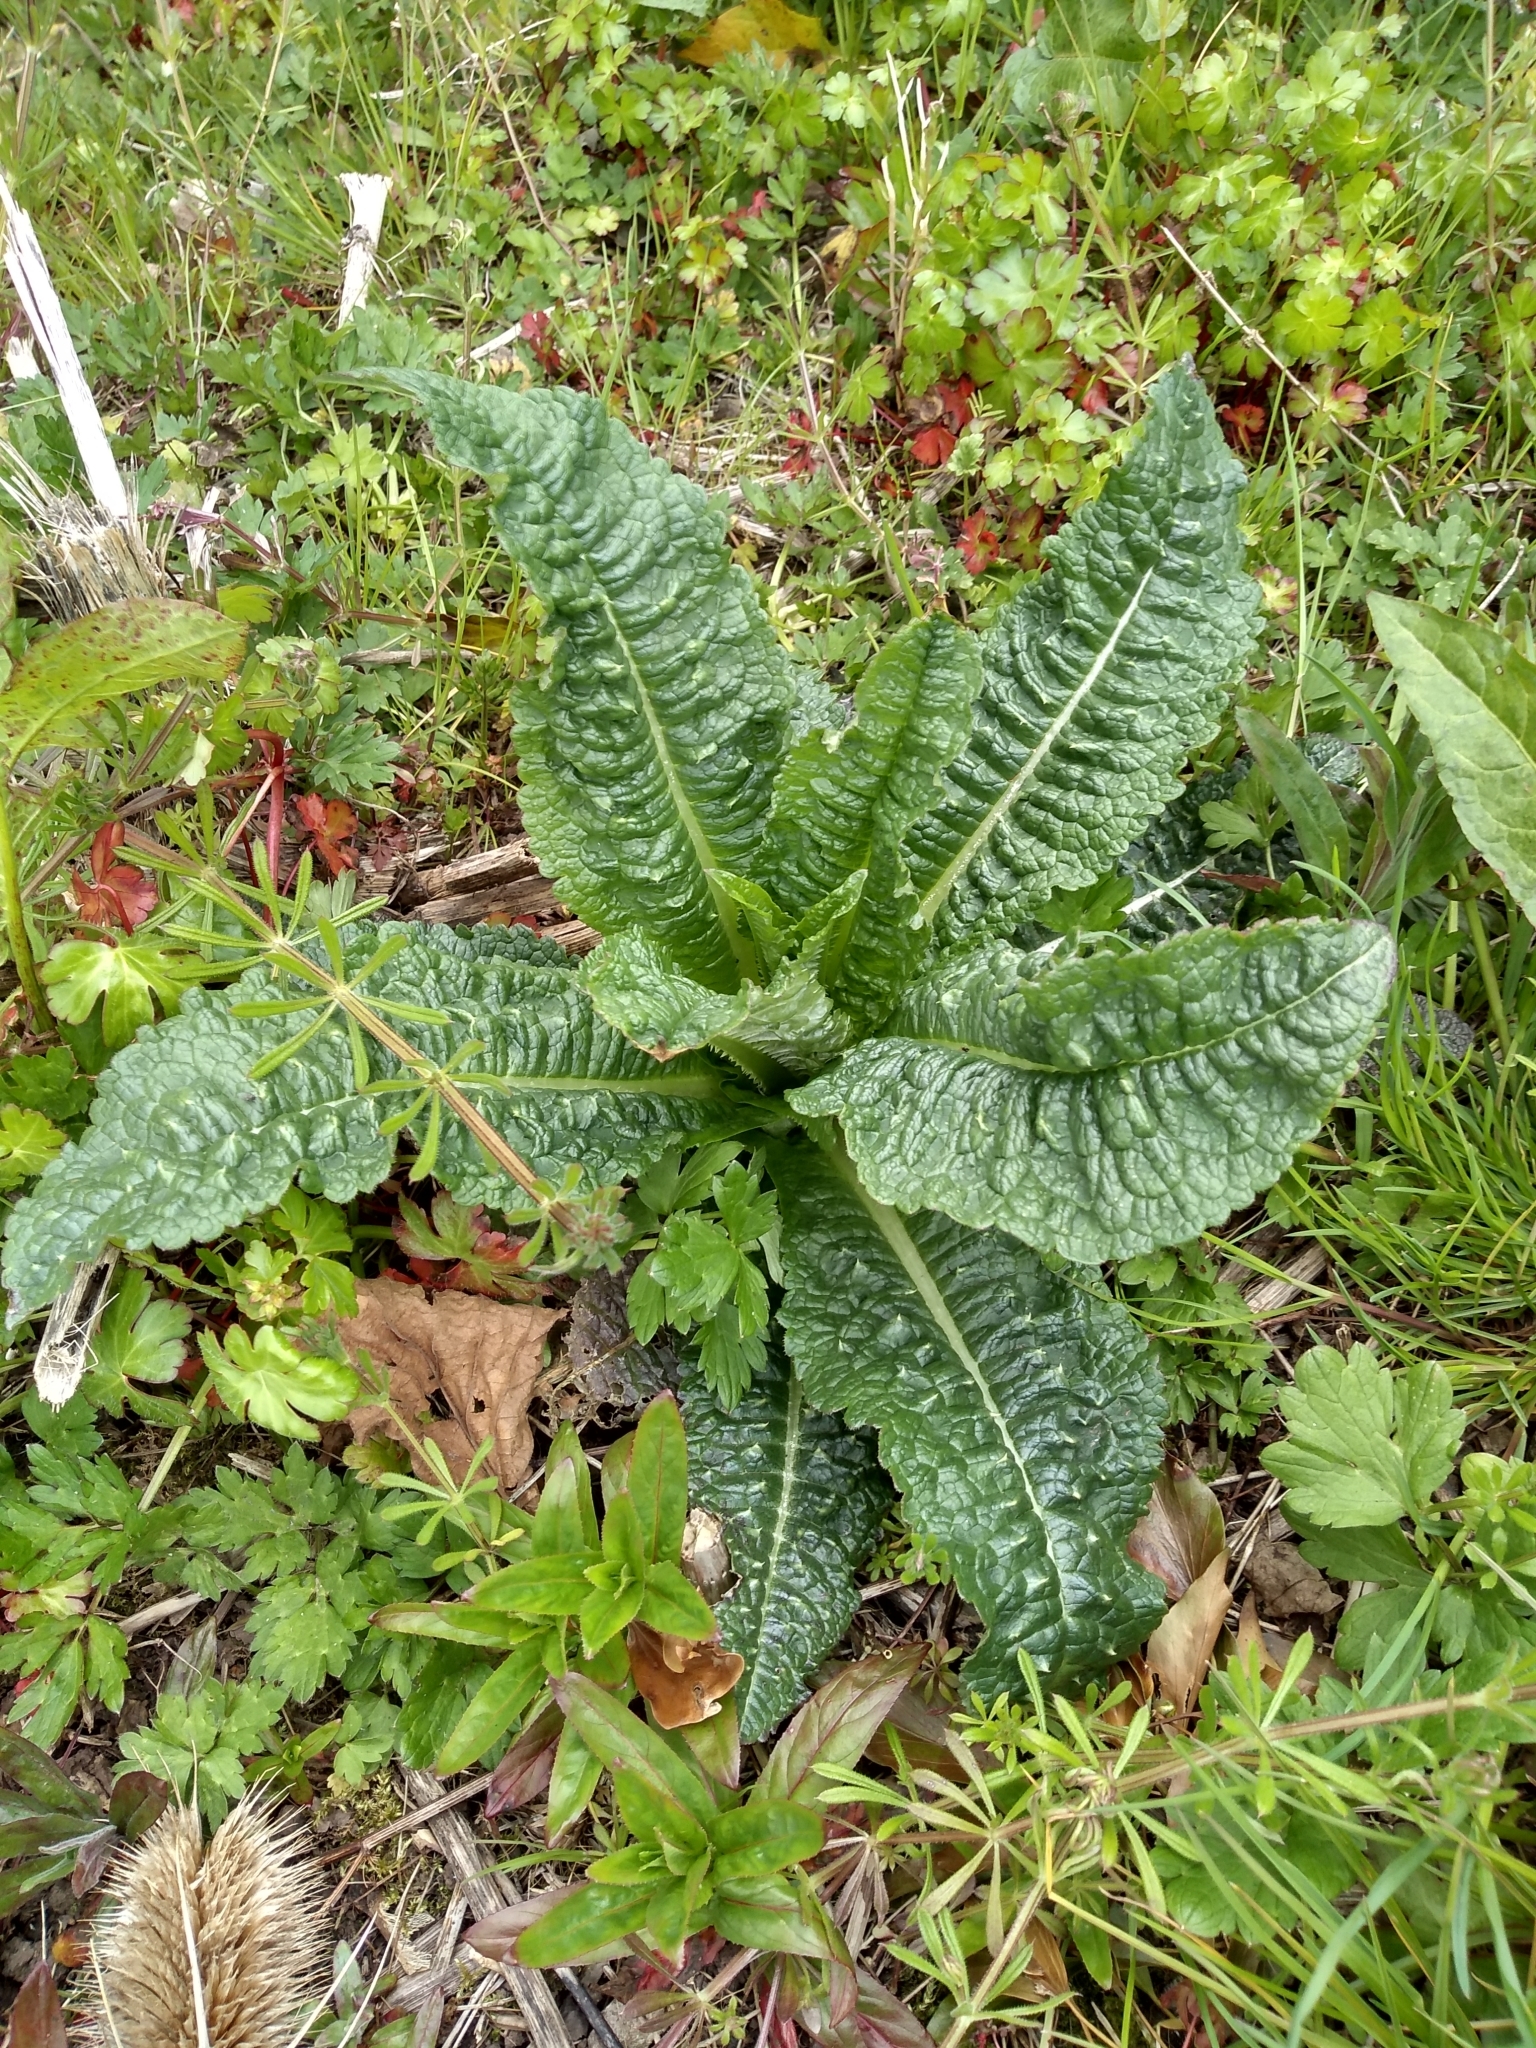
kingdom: Plantae
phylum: Tracheophyta
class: Magnoliopsida
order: Dipsacales
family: Caprifoliaceae
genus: Dipsacus
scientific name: Dipsacus fullonum
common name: Teasel
